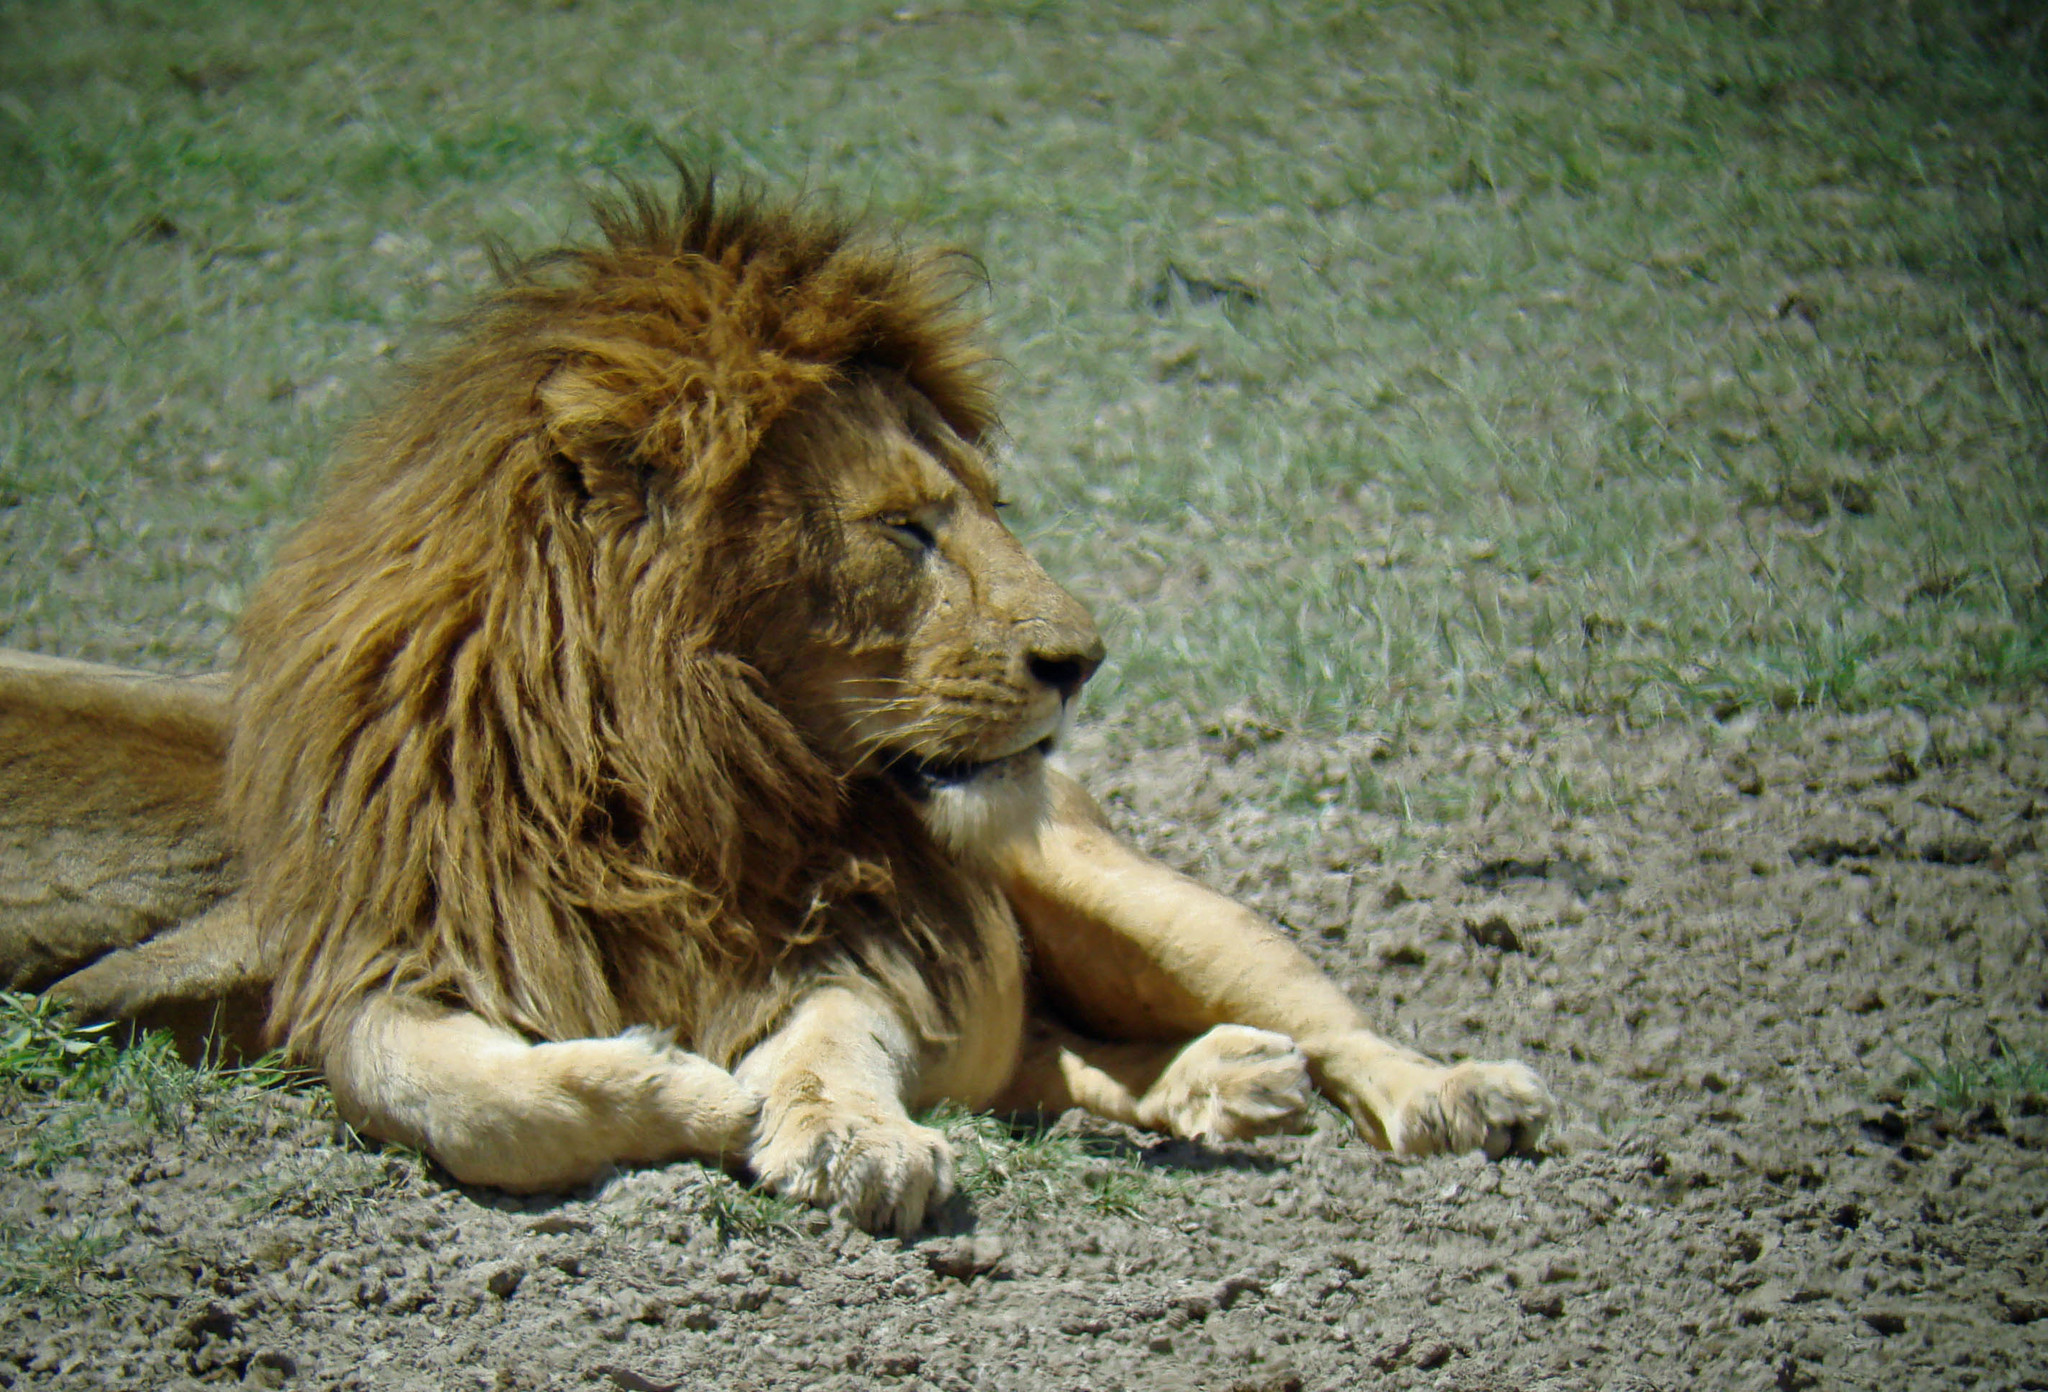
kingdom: Animalia
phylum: Chordata
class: Mammalia
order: Carnivora
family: Felidae
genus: Panthera
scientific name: Panthera leo
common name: Lion
